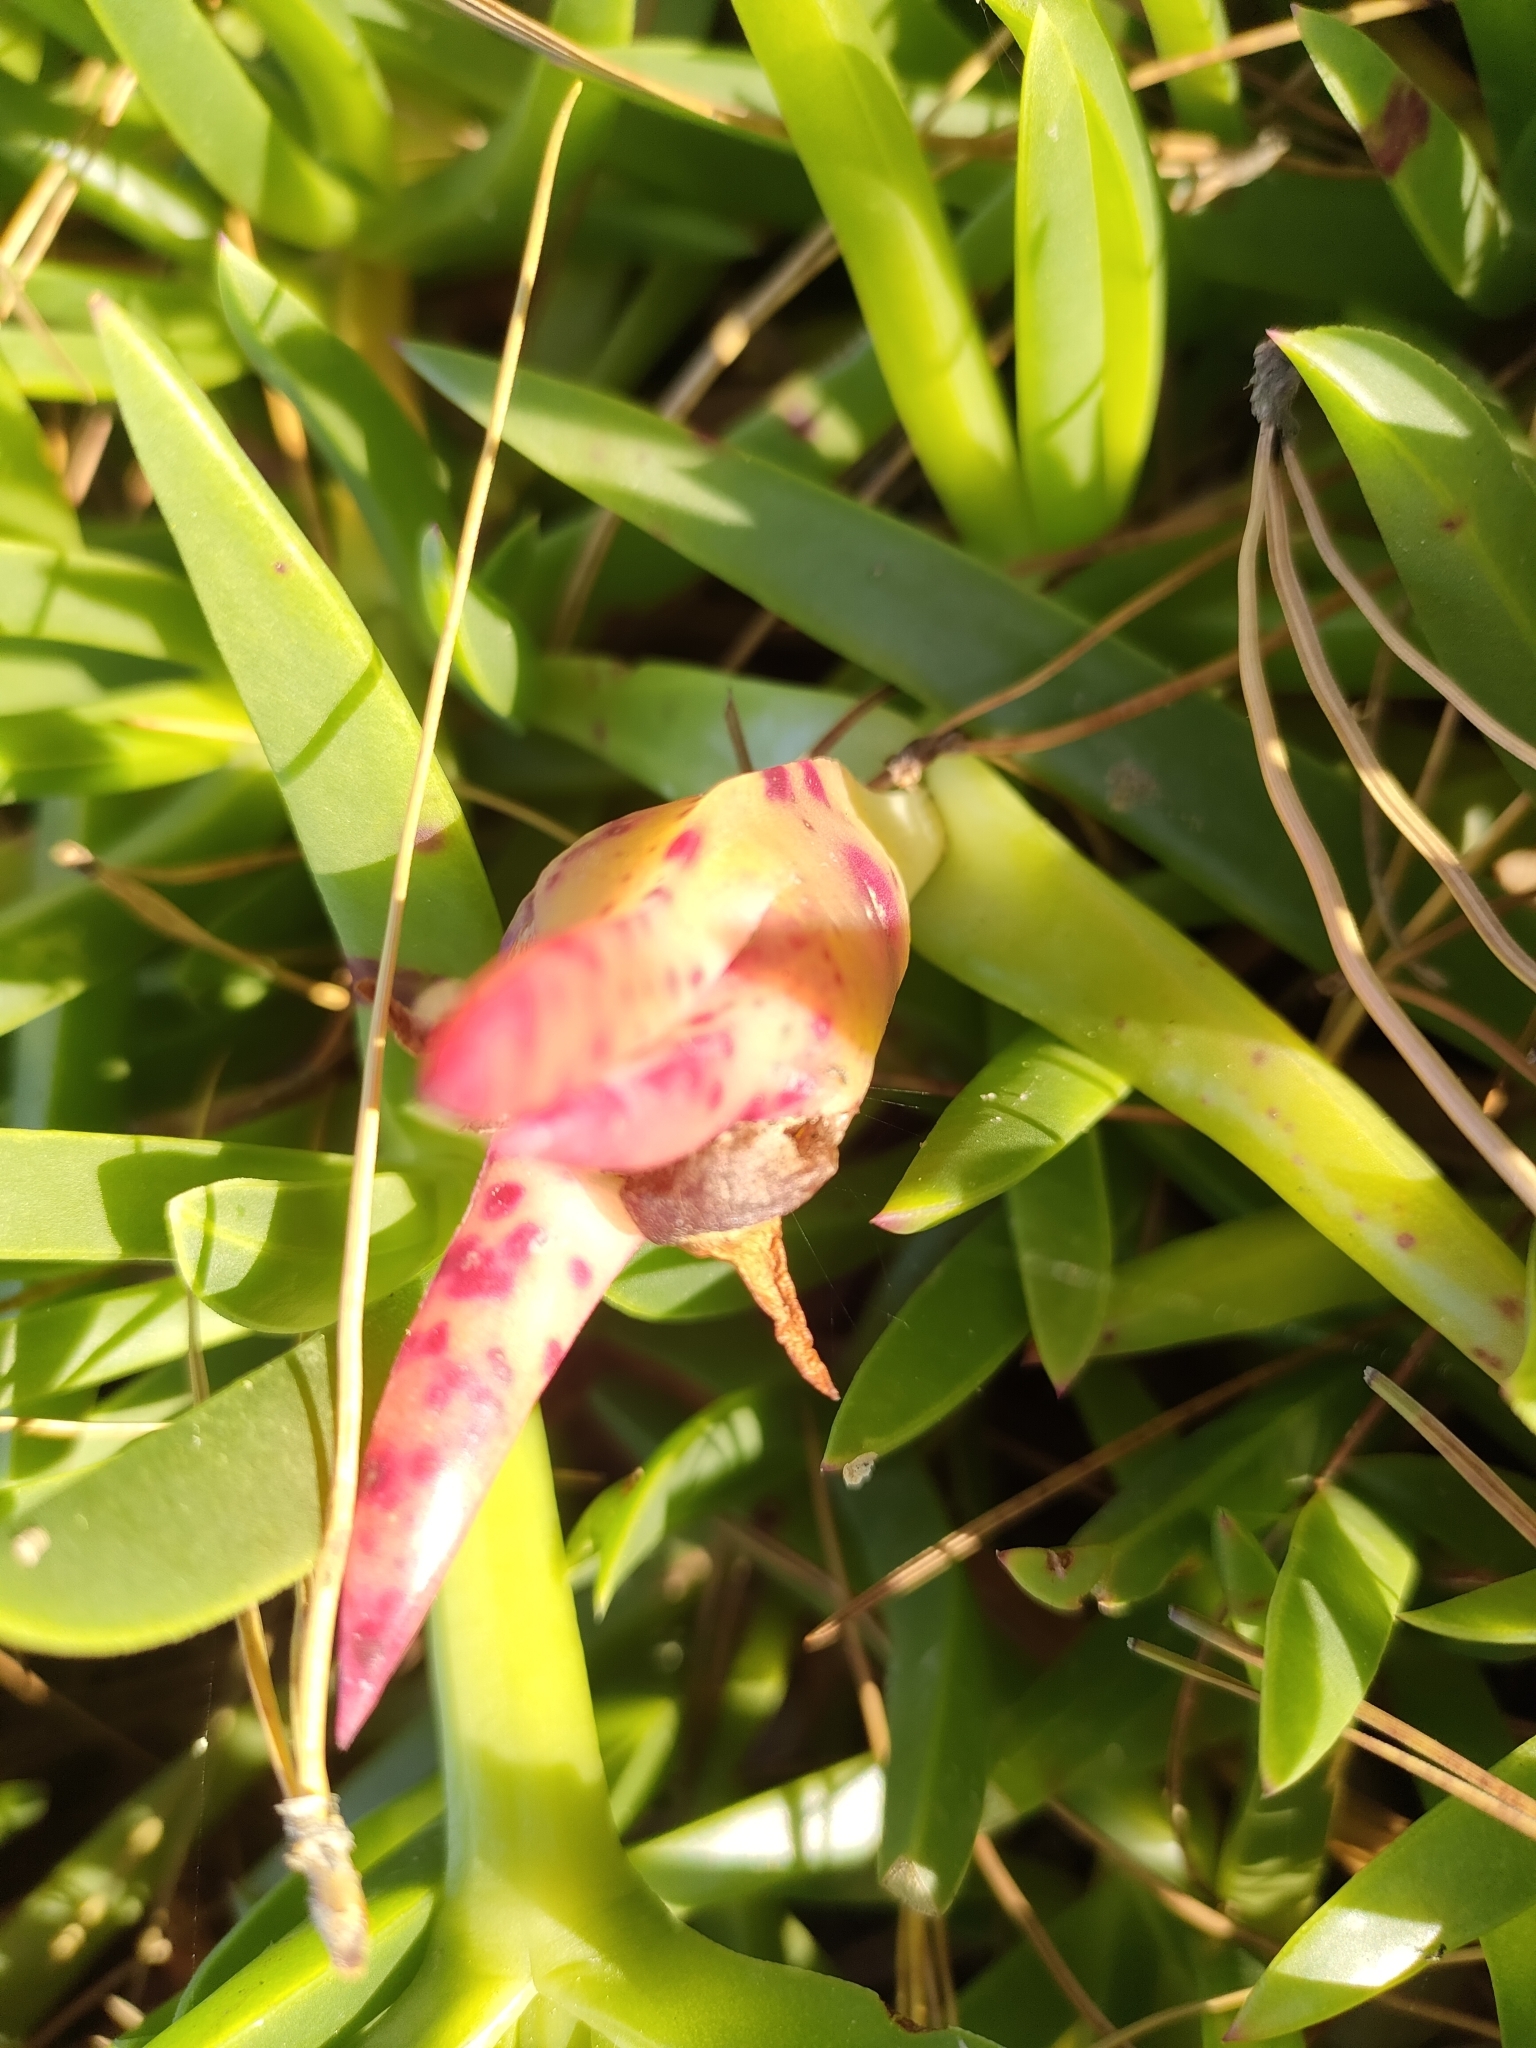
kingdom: Plantae
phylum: Tracheophyta
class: Magnoliopsida
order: Caryophyllales
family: Aizoaceae
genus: Carpobrotus
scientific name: Carpobrotus edulis
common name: Hottentot-fig
